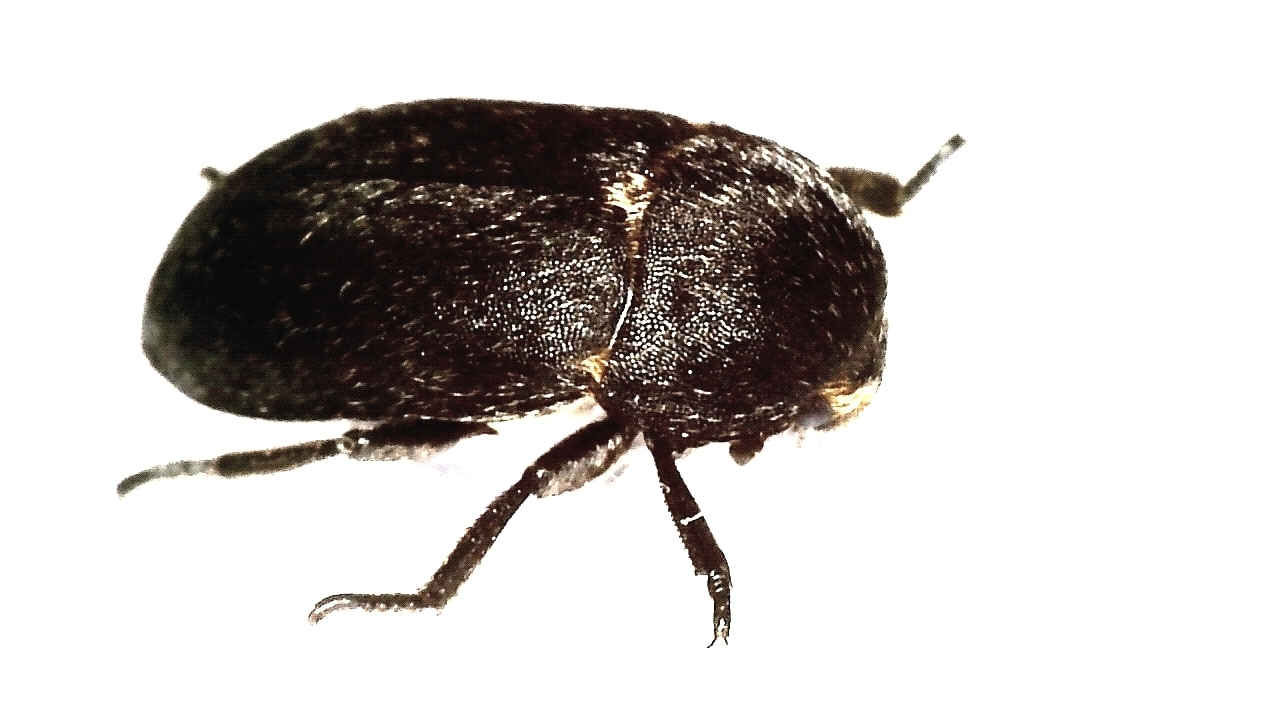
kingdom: Animalia
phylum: Arthropoda
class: Insecta
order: Coleoptera
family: Dermestidae
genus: Dermestes
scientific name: Dermestes laniarius
